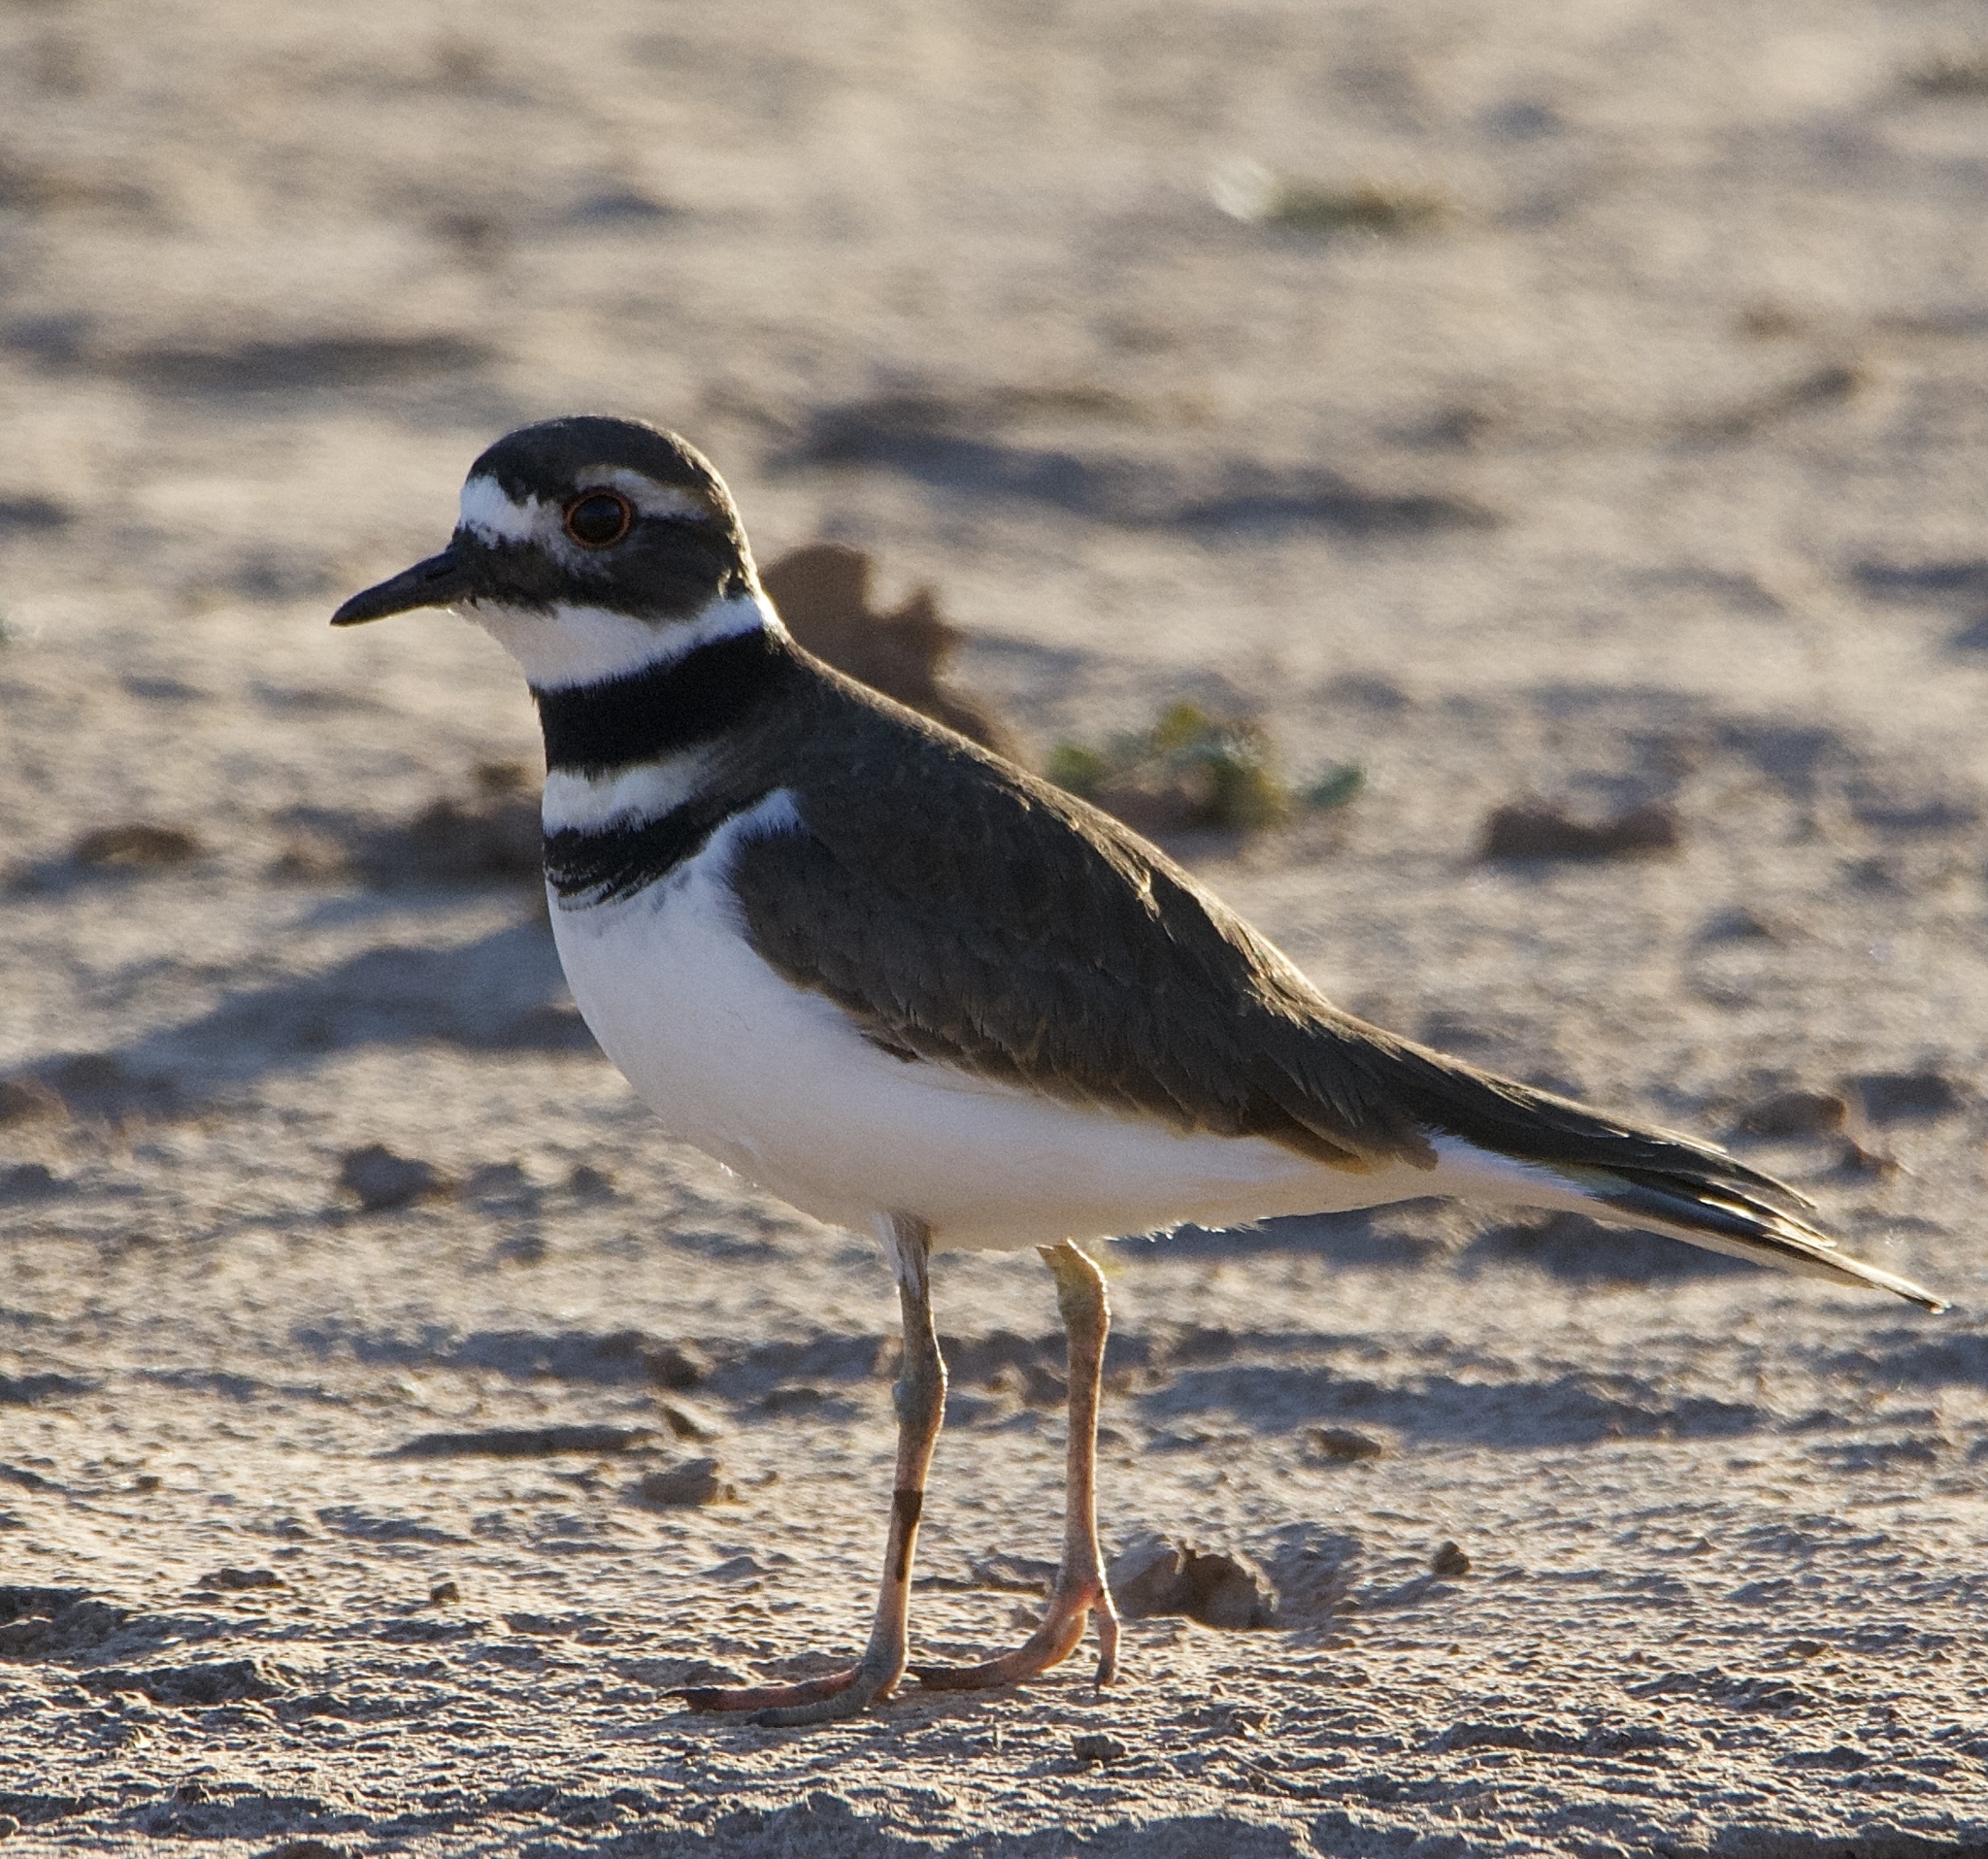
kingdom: Animalia
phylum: Chordata
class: Aves
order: Charadriiformes
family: Charadriidae
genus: Charadrius
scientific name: Charadrius vociferus
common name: Killdeer
